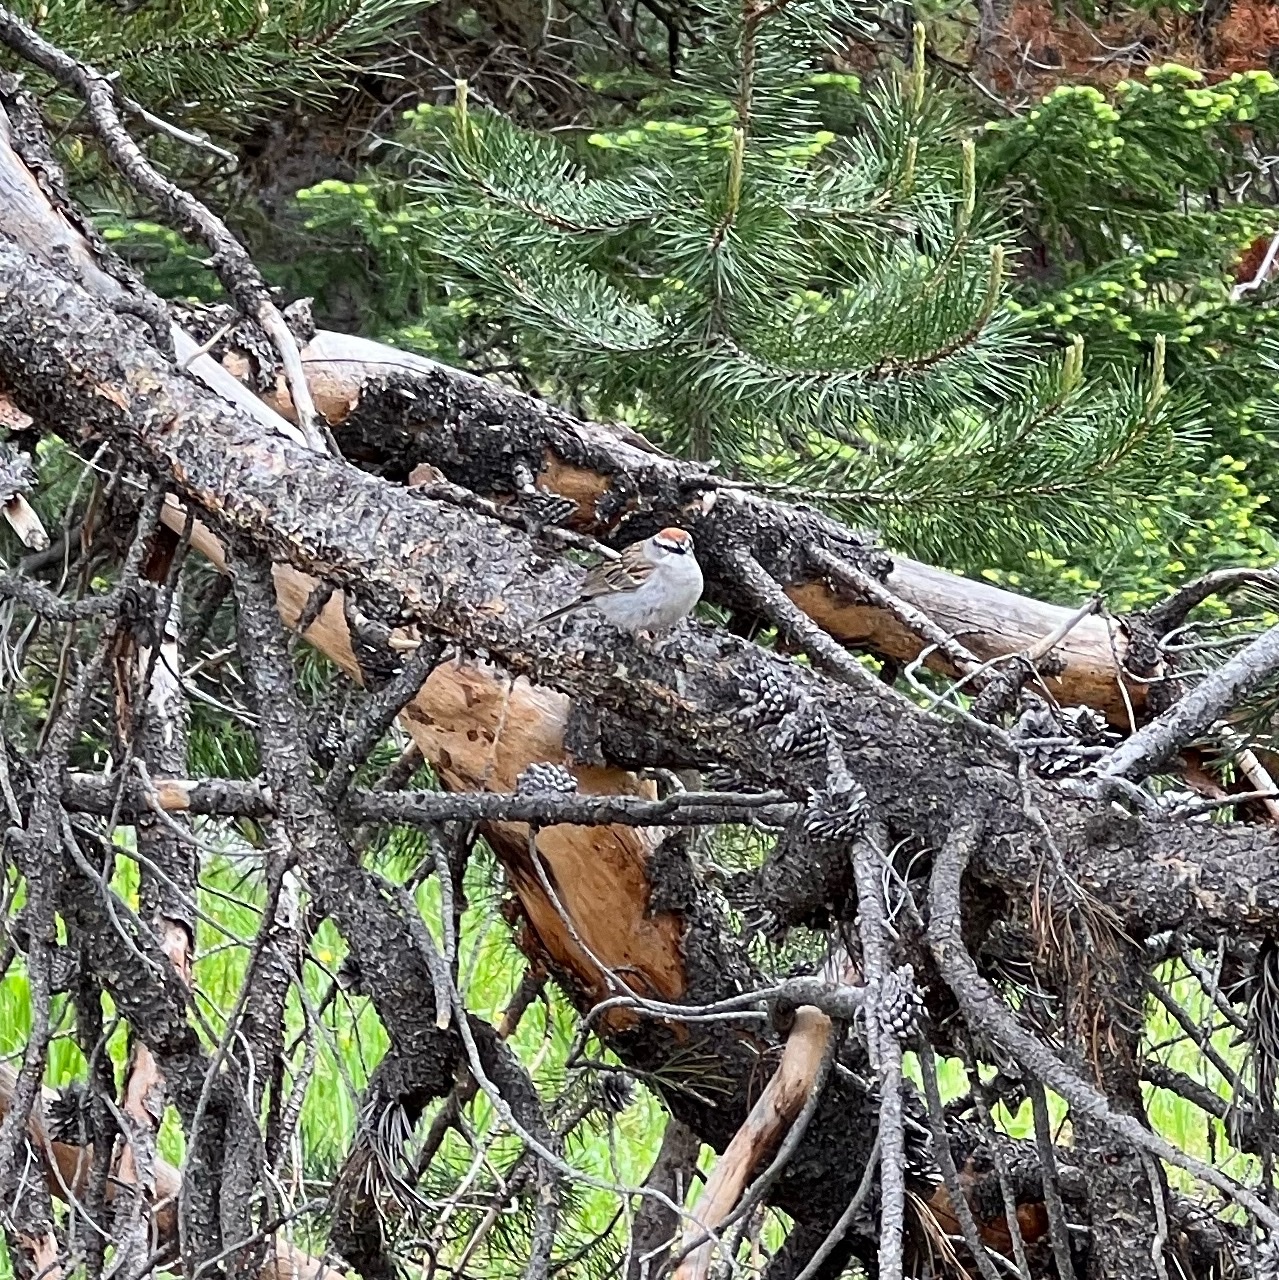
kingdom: Animalia
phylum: Chordata
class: Aves
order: Passeriformes
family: Passerellidae
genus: Spizella
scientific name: Spizella passerina
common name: Chipping sparrow
